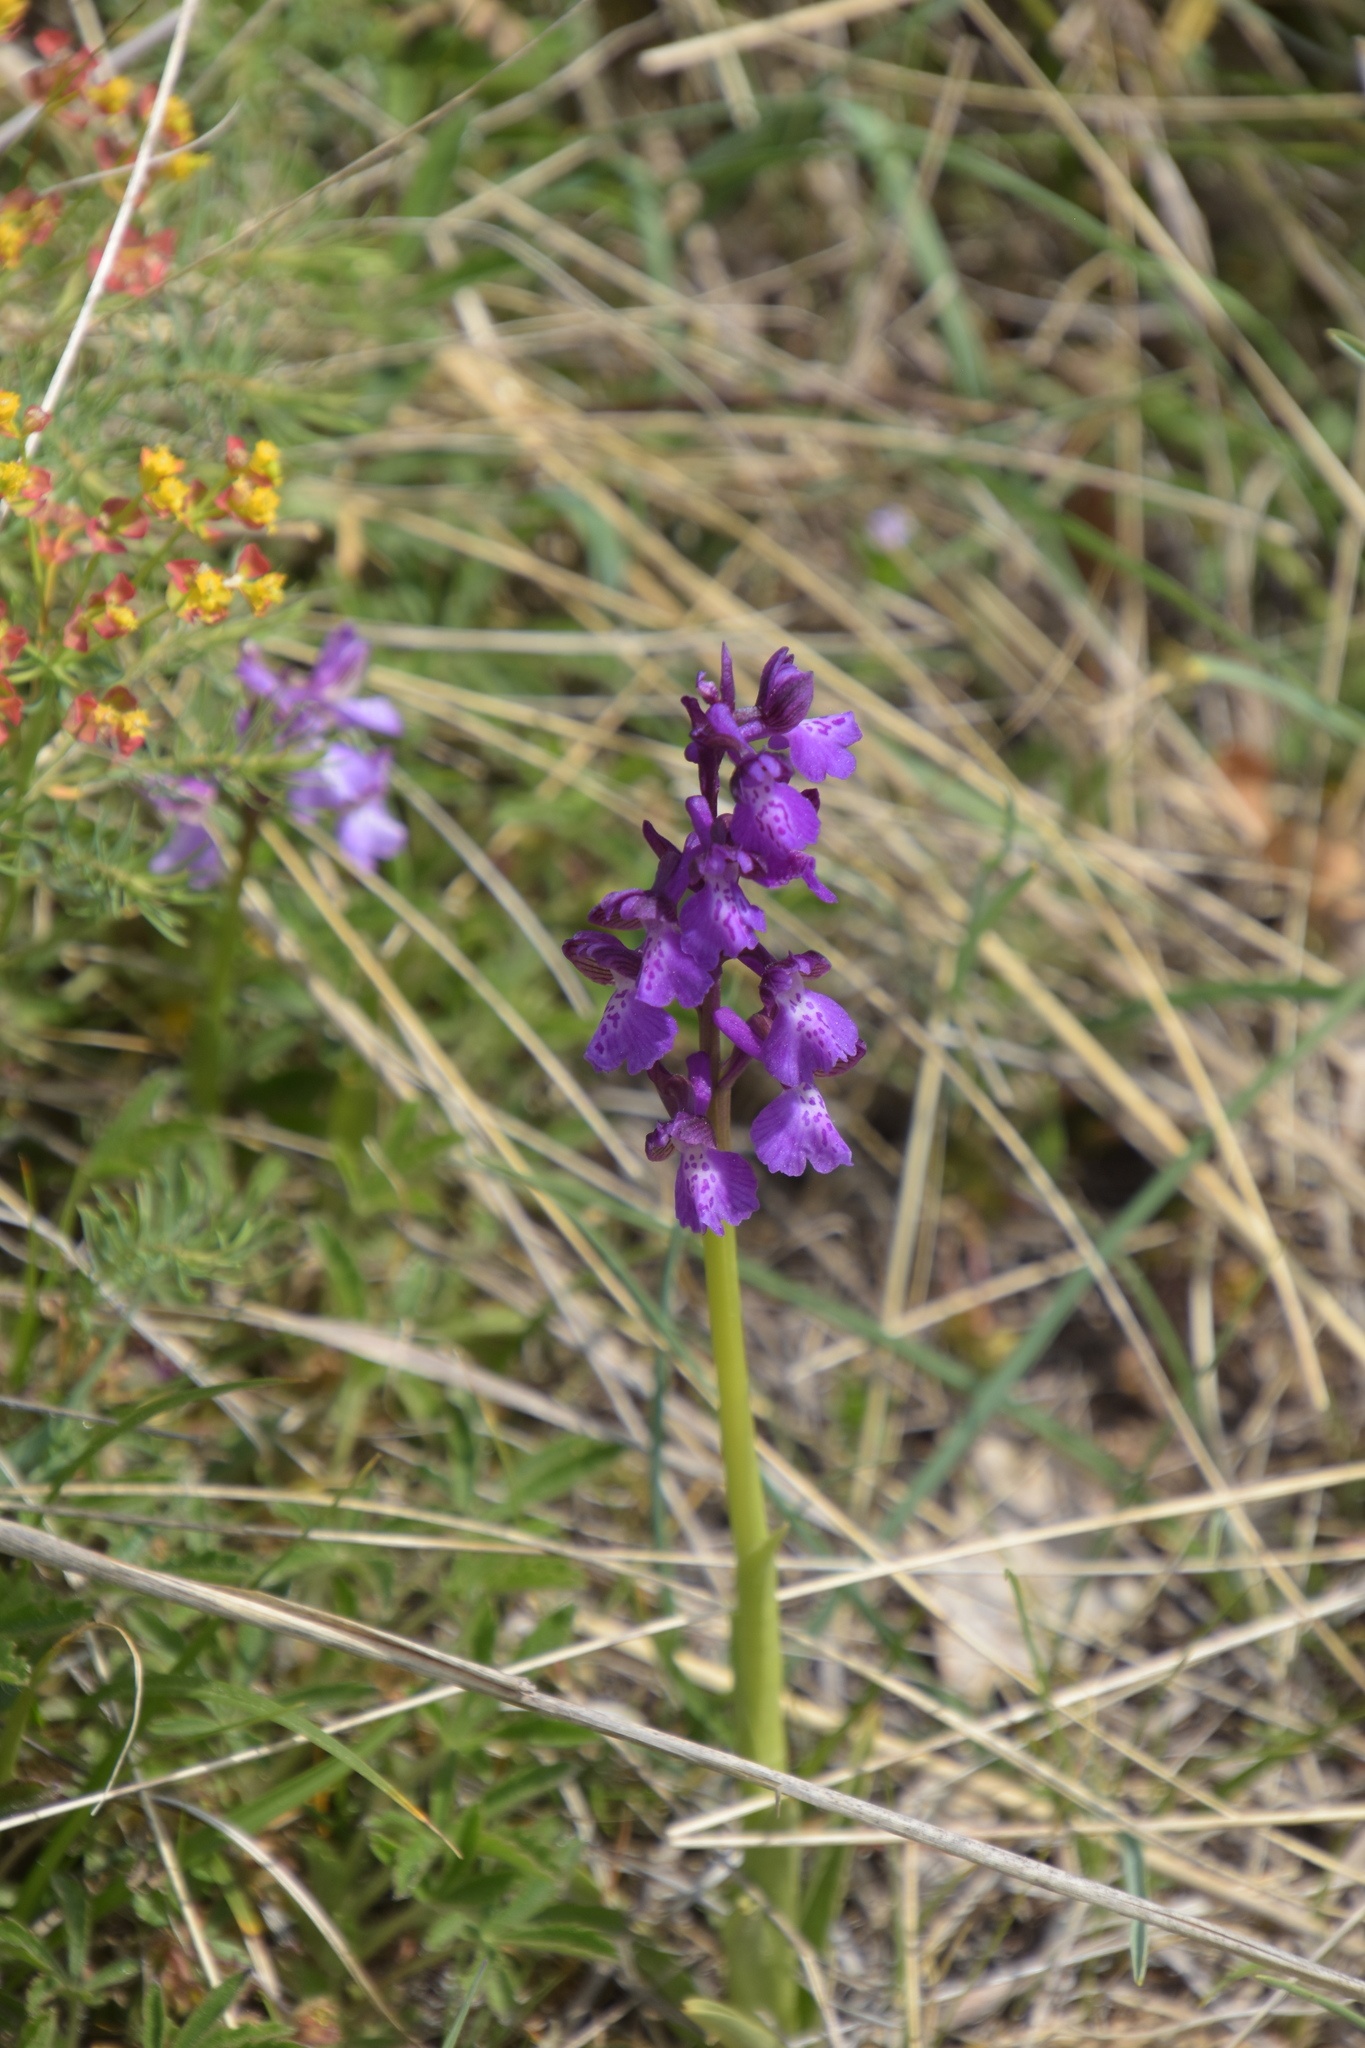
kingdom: Plantae
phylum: Tracheophyta
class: Liliopsida
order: Asparagales
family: Orchidaceae
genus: Anacamptis
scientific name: Anacamptis morio
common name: Green-winged orchid
